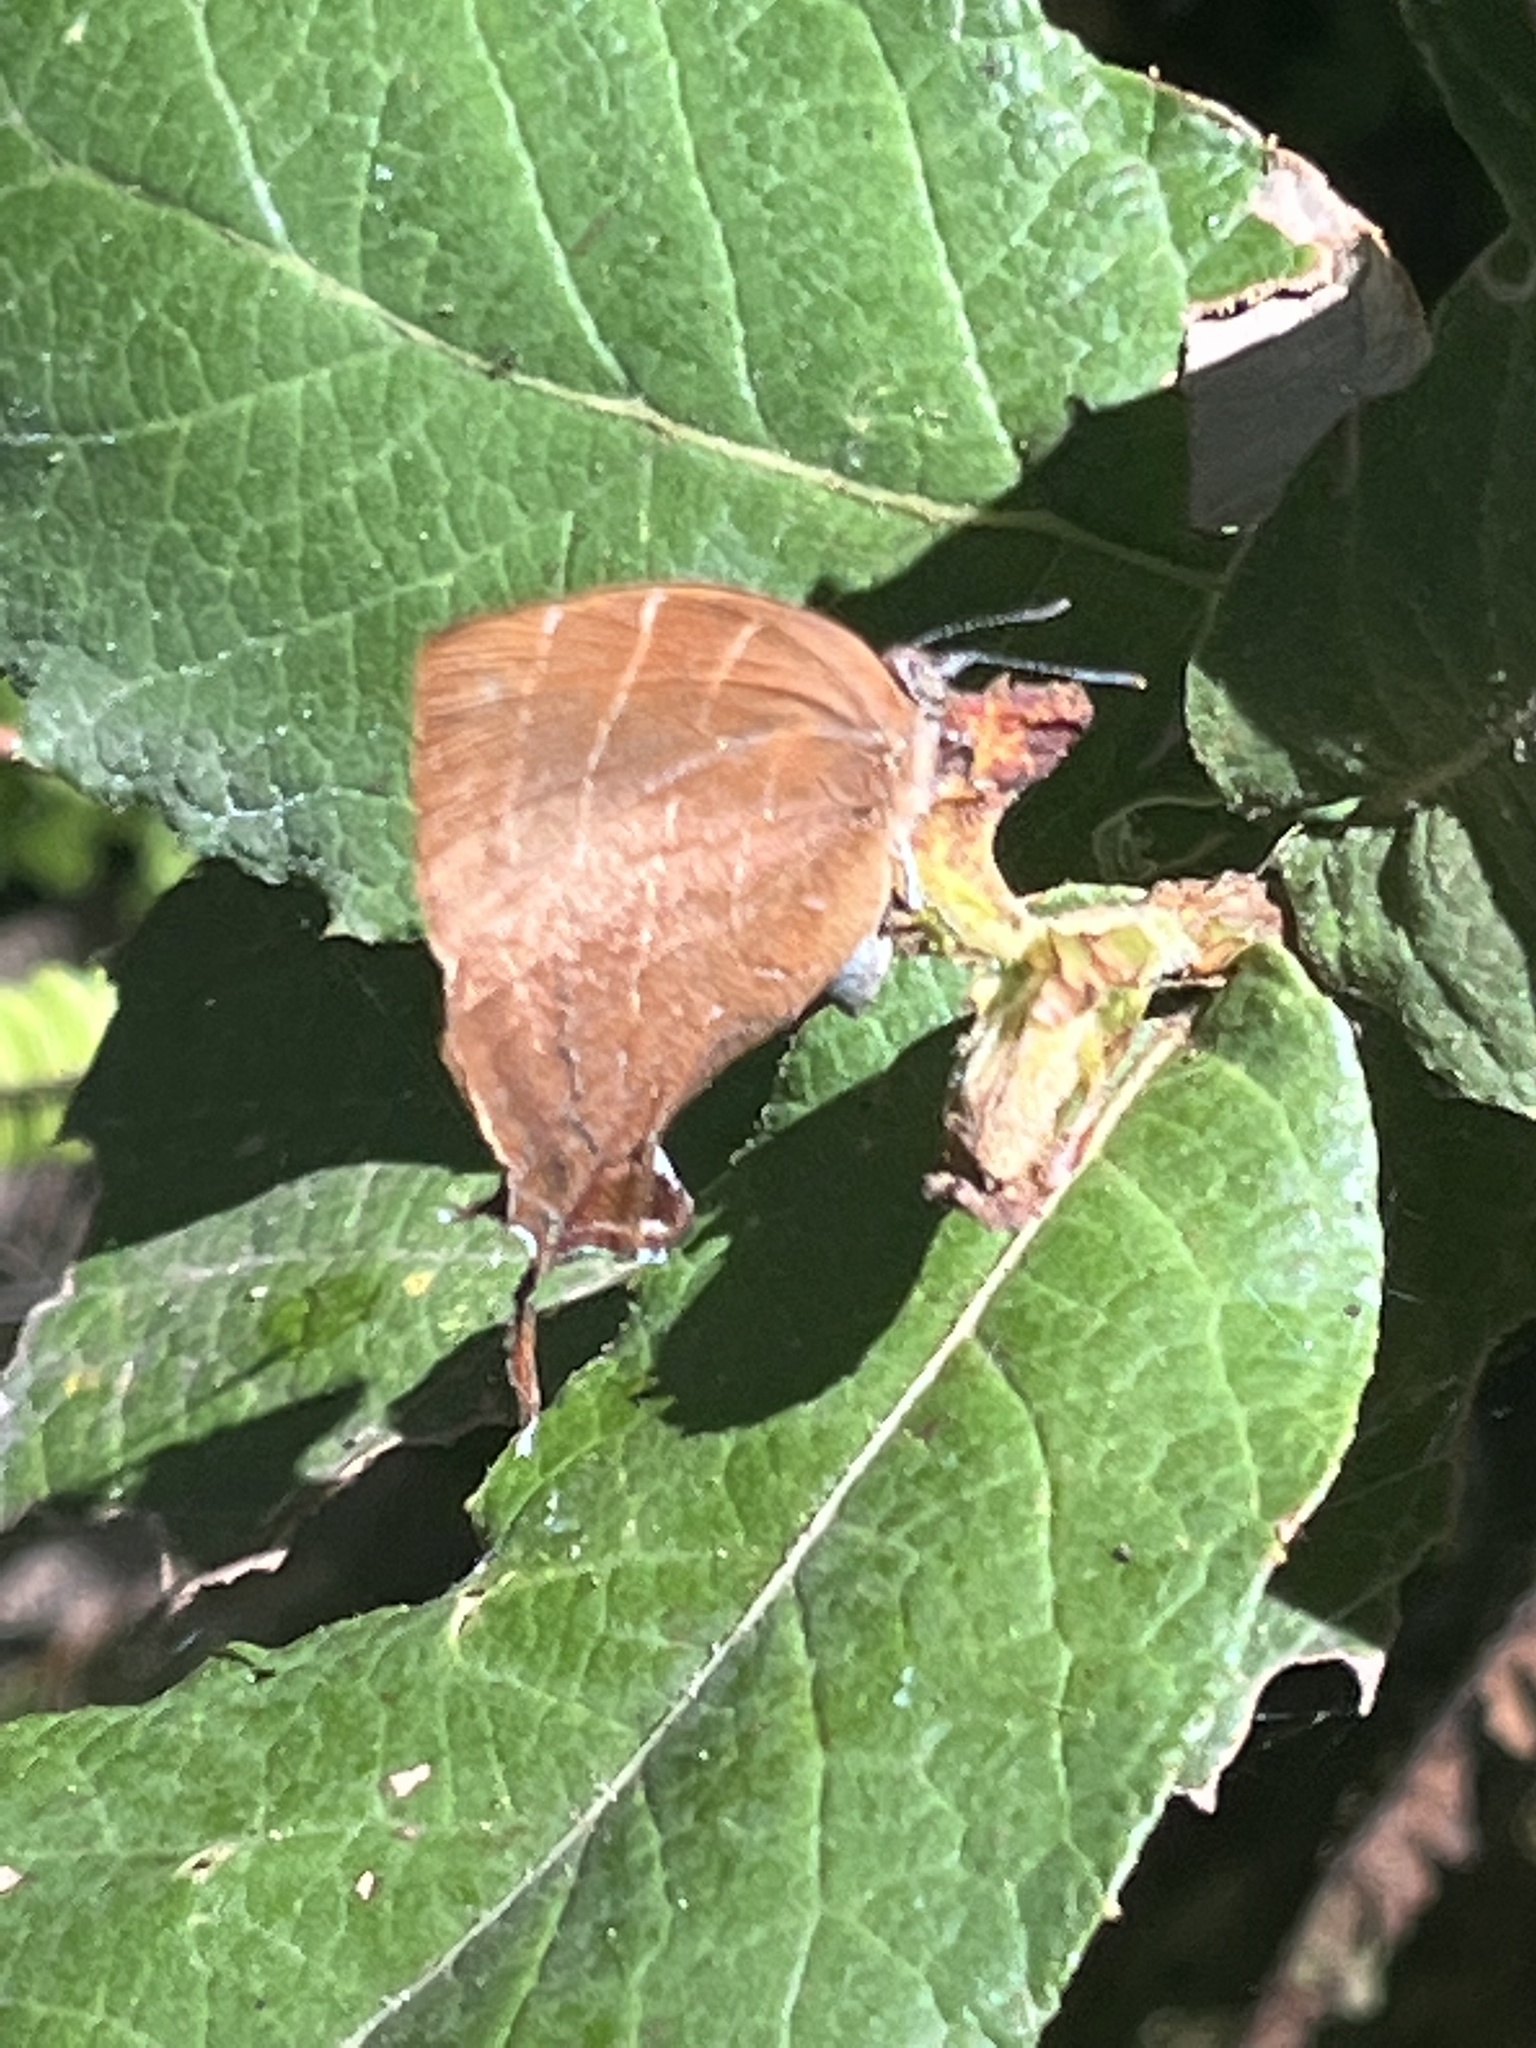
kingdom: Animalia
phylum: Arthropoda
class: Insecta
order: Lepidoptera
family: Lycaenidae
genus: Micandra
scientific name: Micandra
